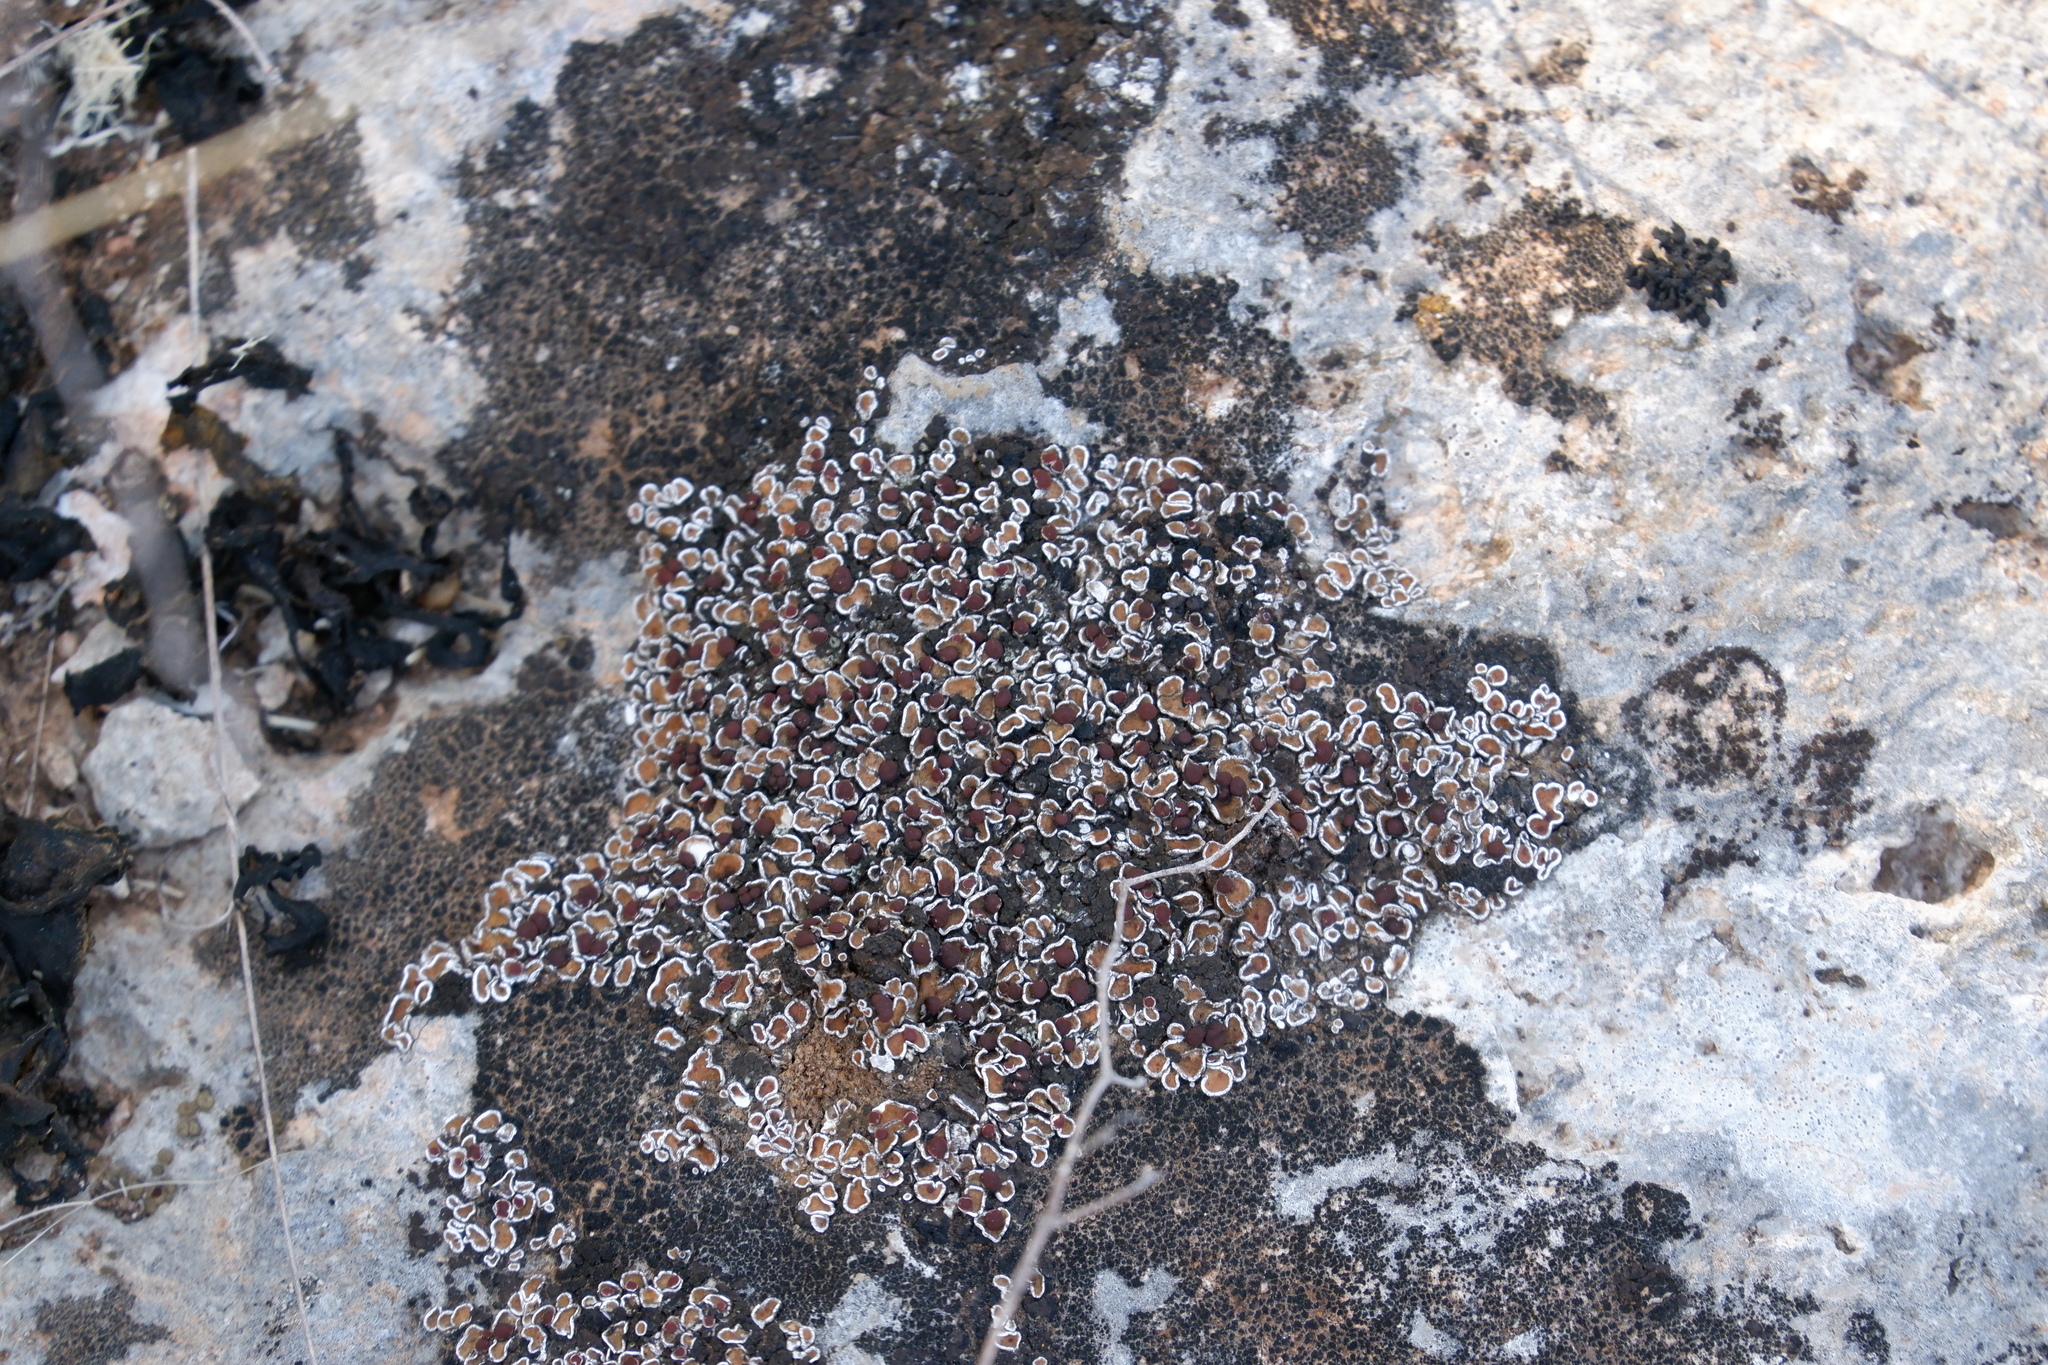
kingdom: Fungi
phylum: Ascomycota
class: Lecanoromycetes
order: Lecanorales
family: Psoraceae
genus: Psora
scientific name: Psora pseudorussellii
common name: Bordered scale lichen
